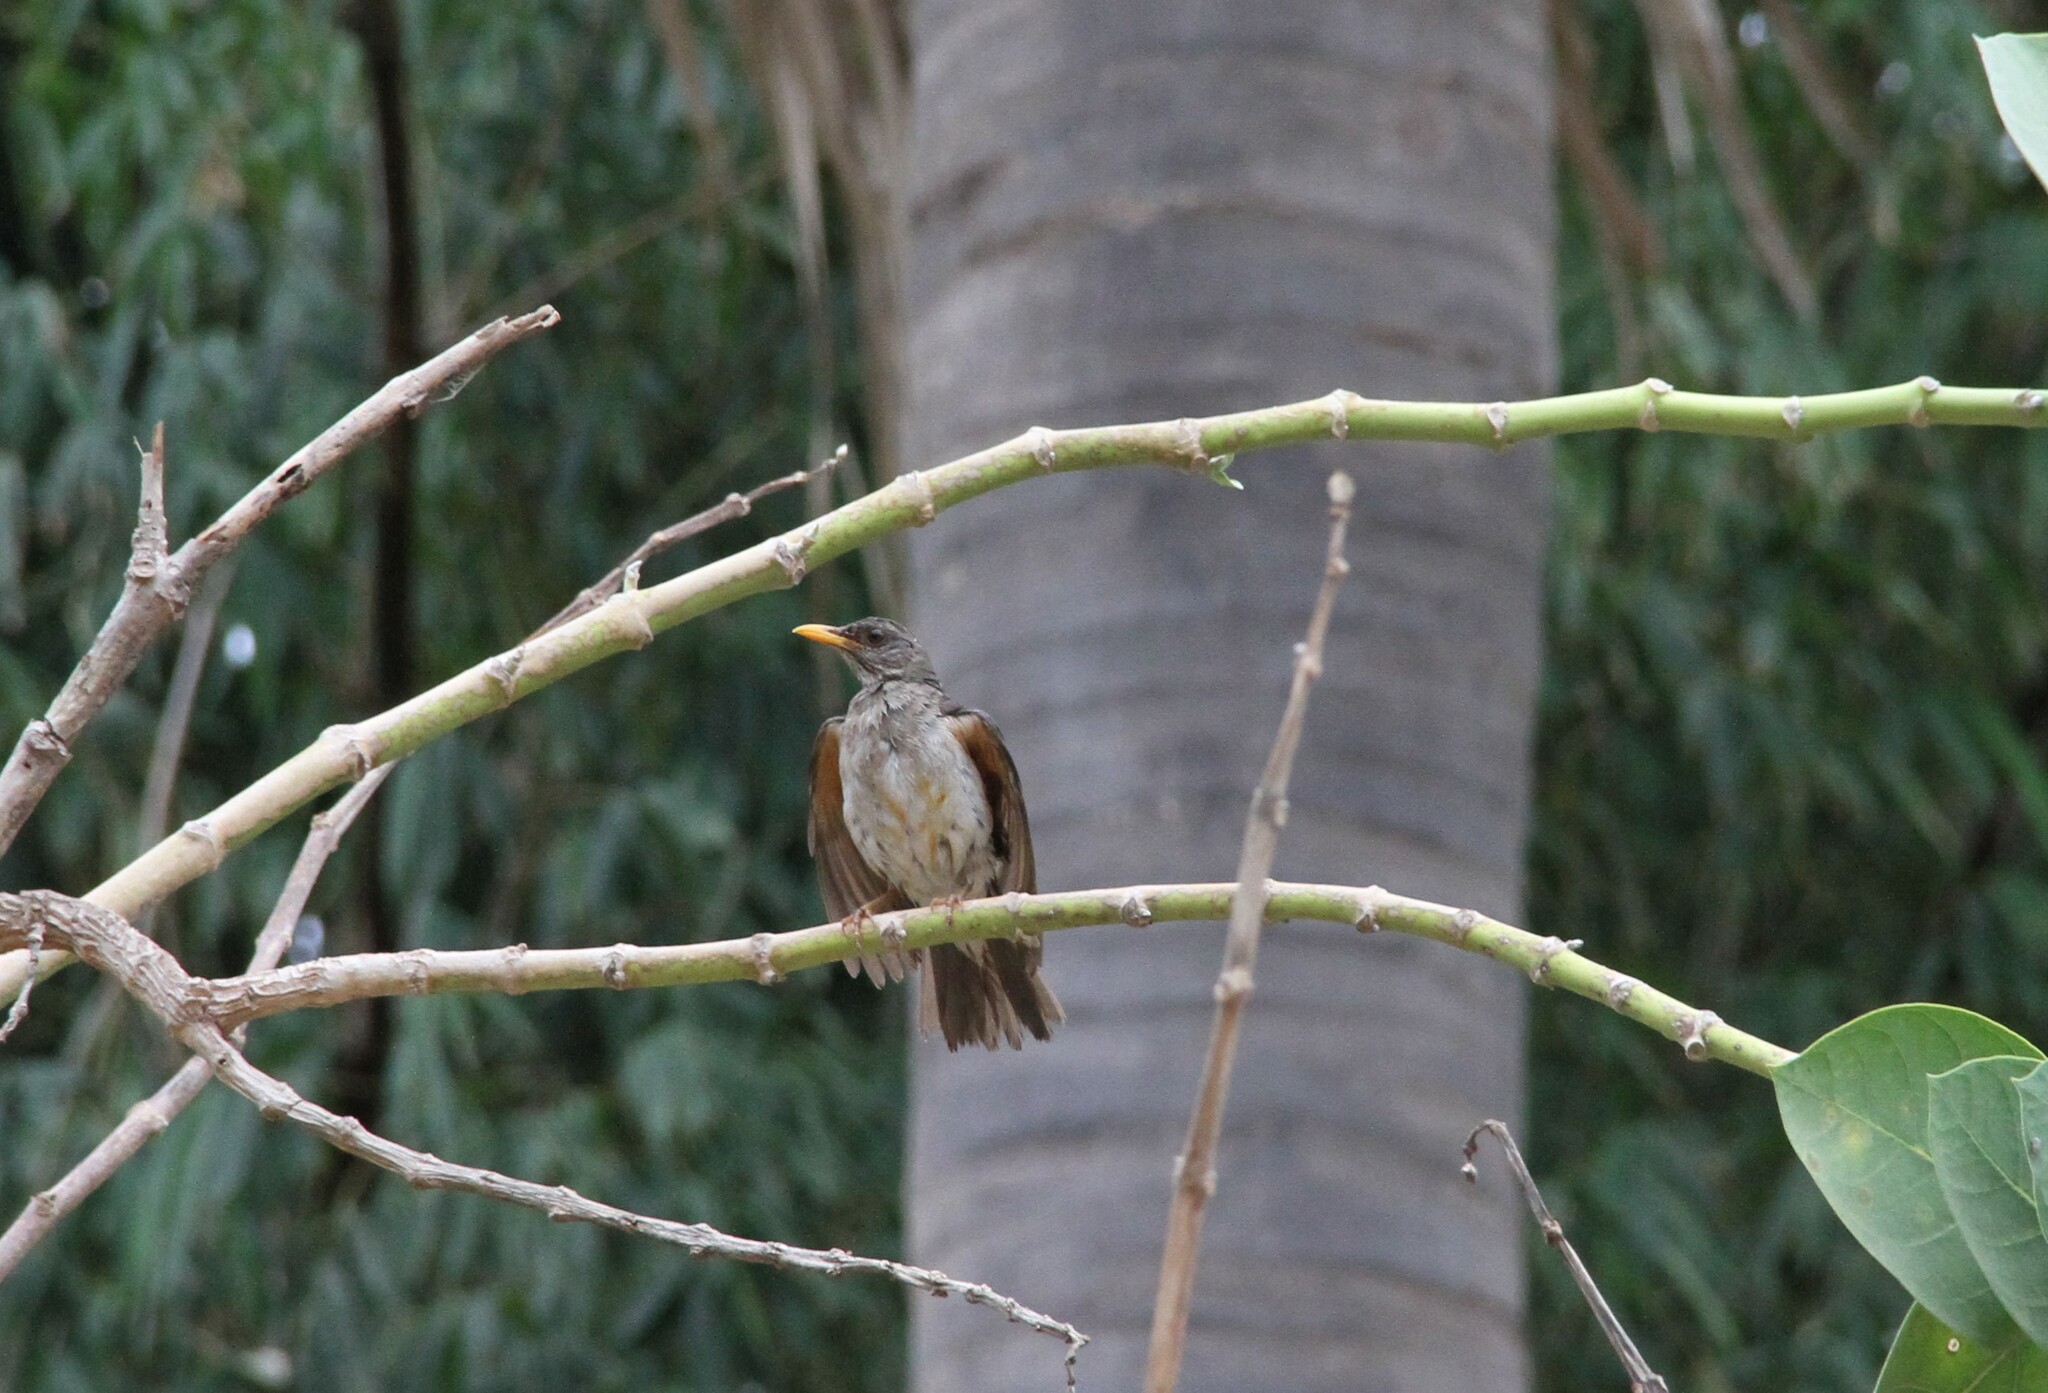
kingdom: Animalia
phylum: Chordata
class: Aves
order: Passeriformes
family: Turdidae
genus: Turdus
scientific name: Turdus pelios
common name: African thrush
